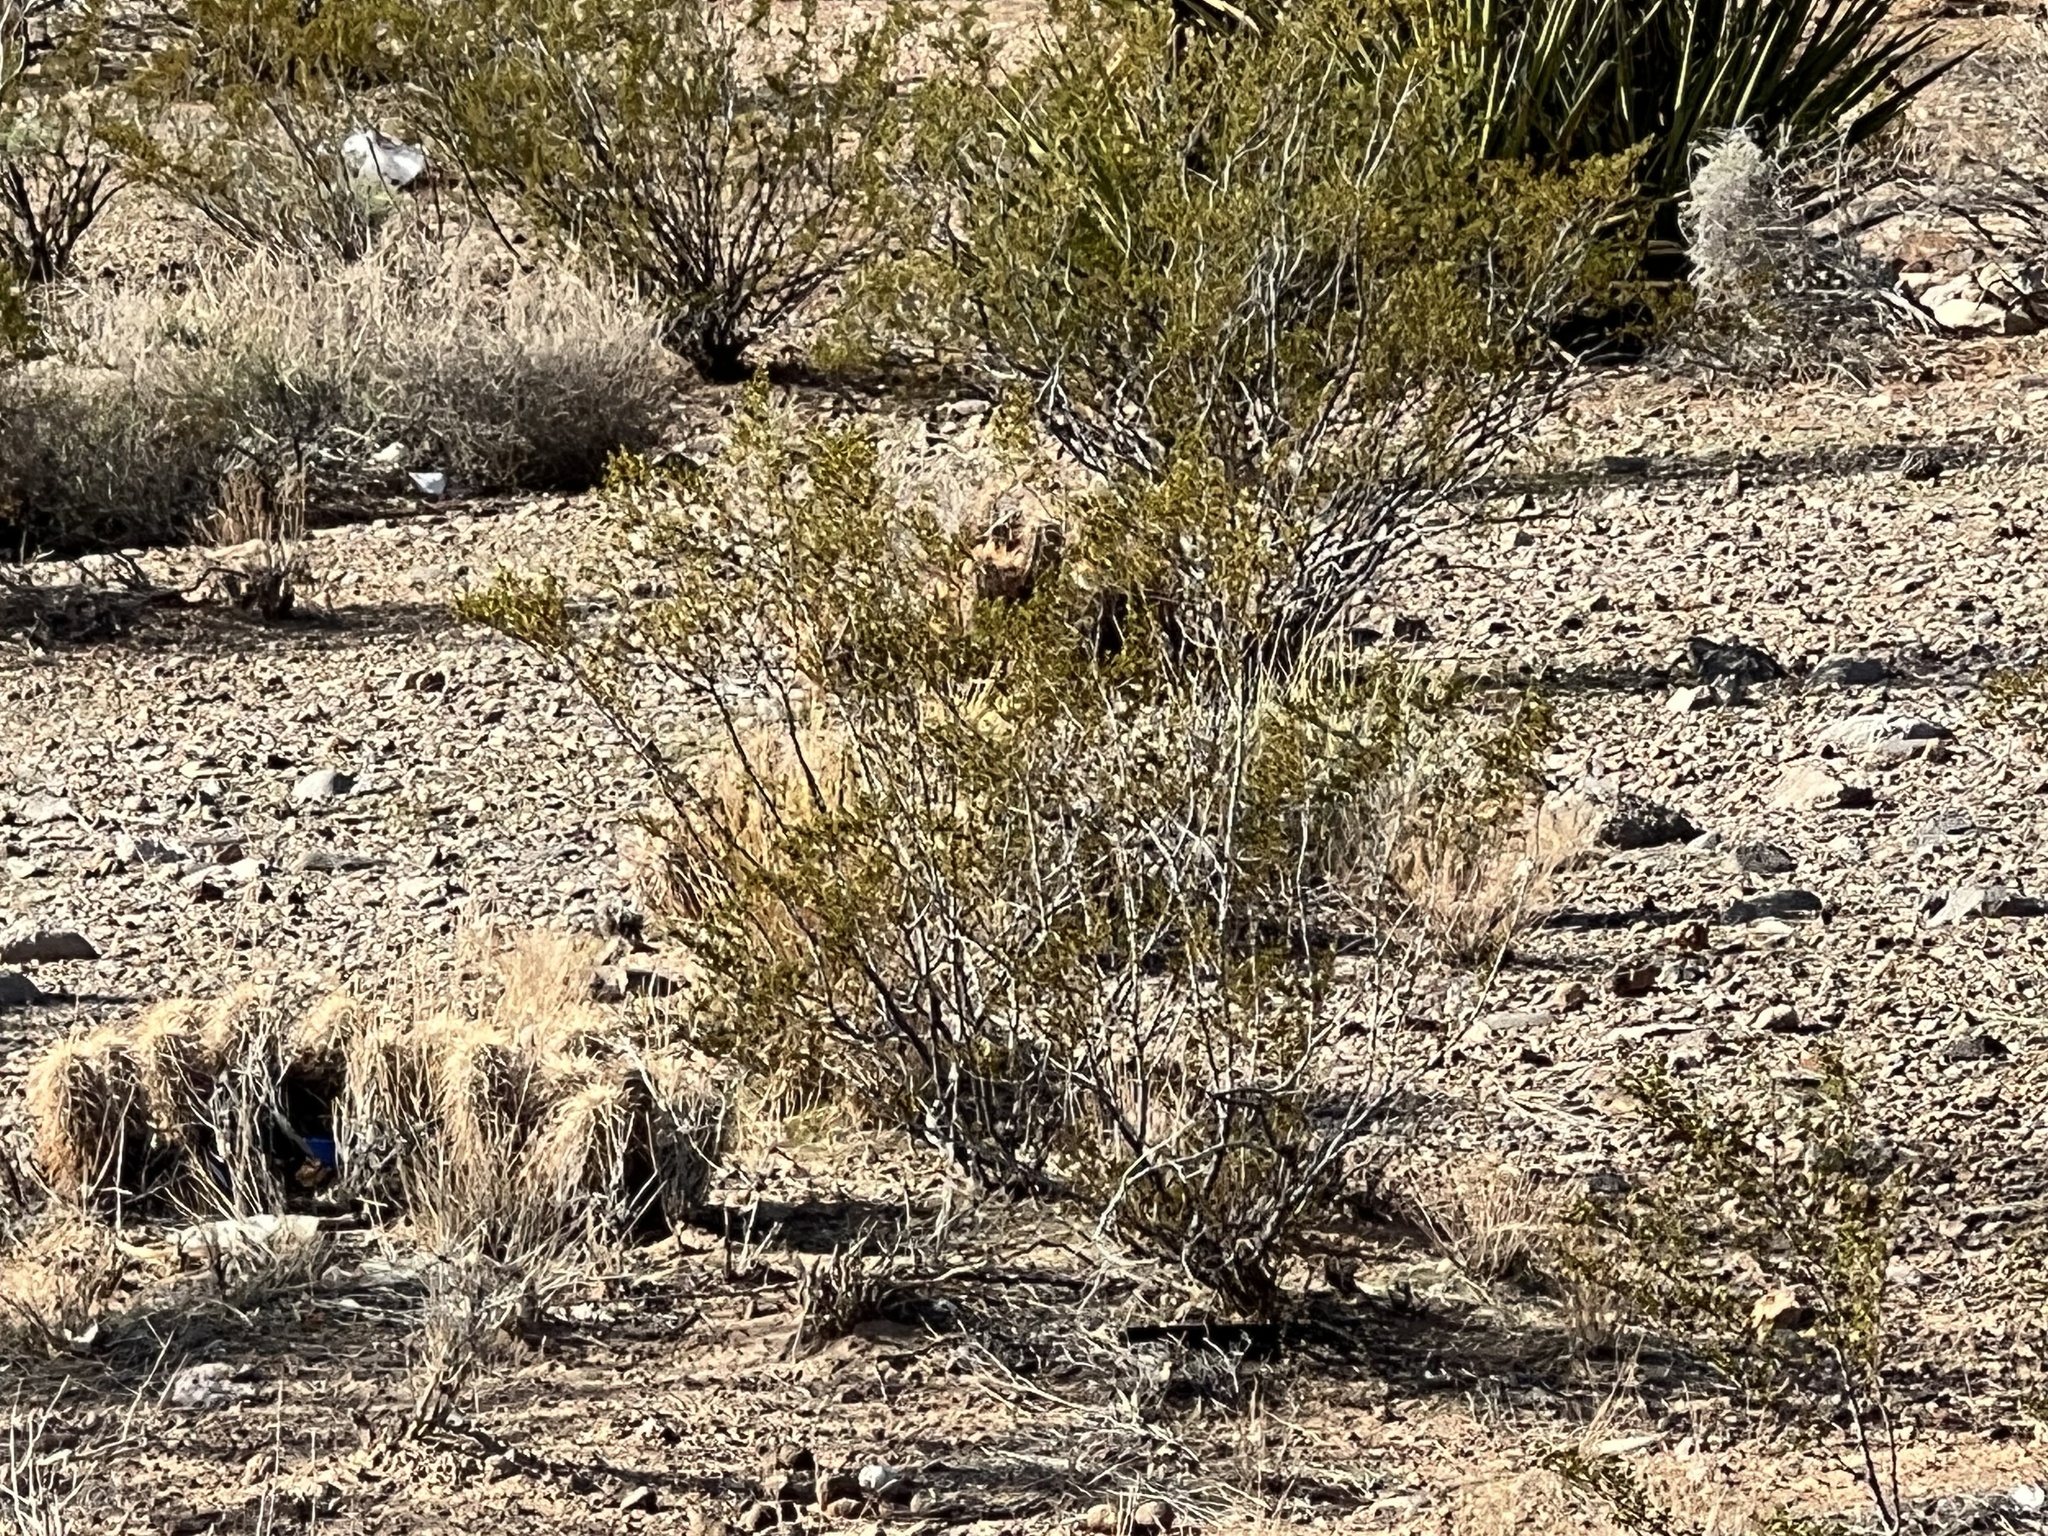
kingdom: Plantae
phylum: Tracheophyta
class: Magnoliopsida
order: Zygophyllales
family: Zygophyllaceae
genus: Larrea
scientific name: Larrea tridentata
